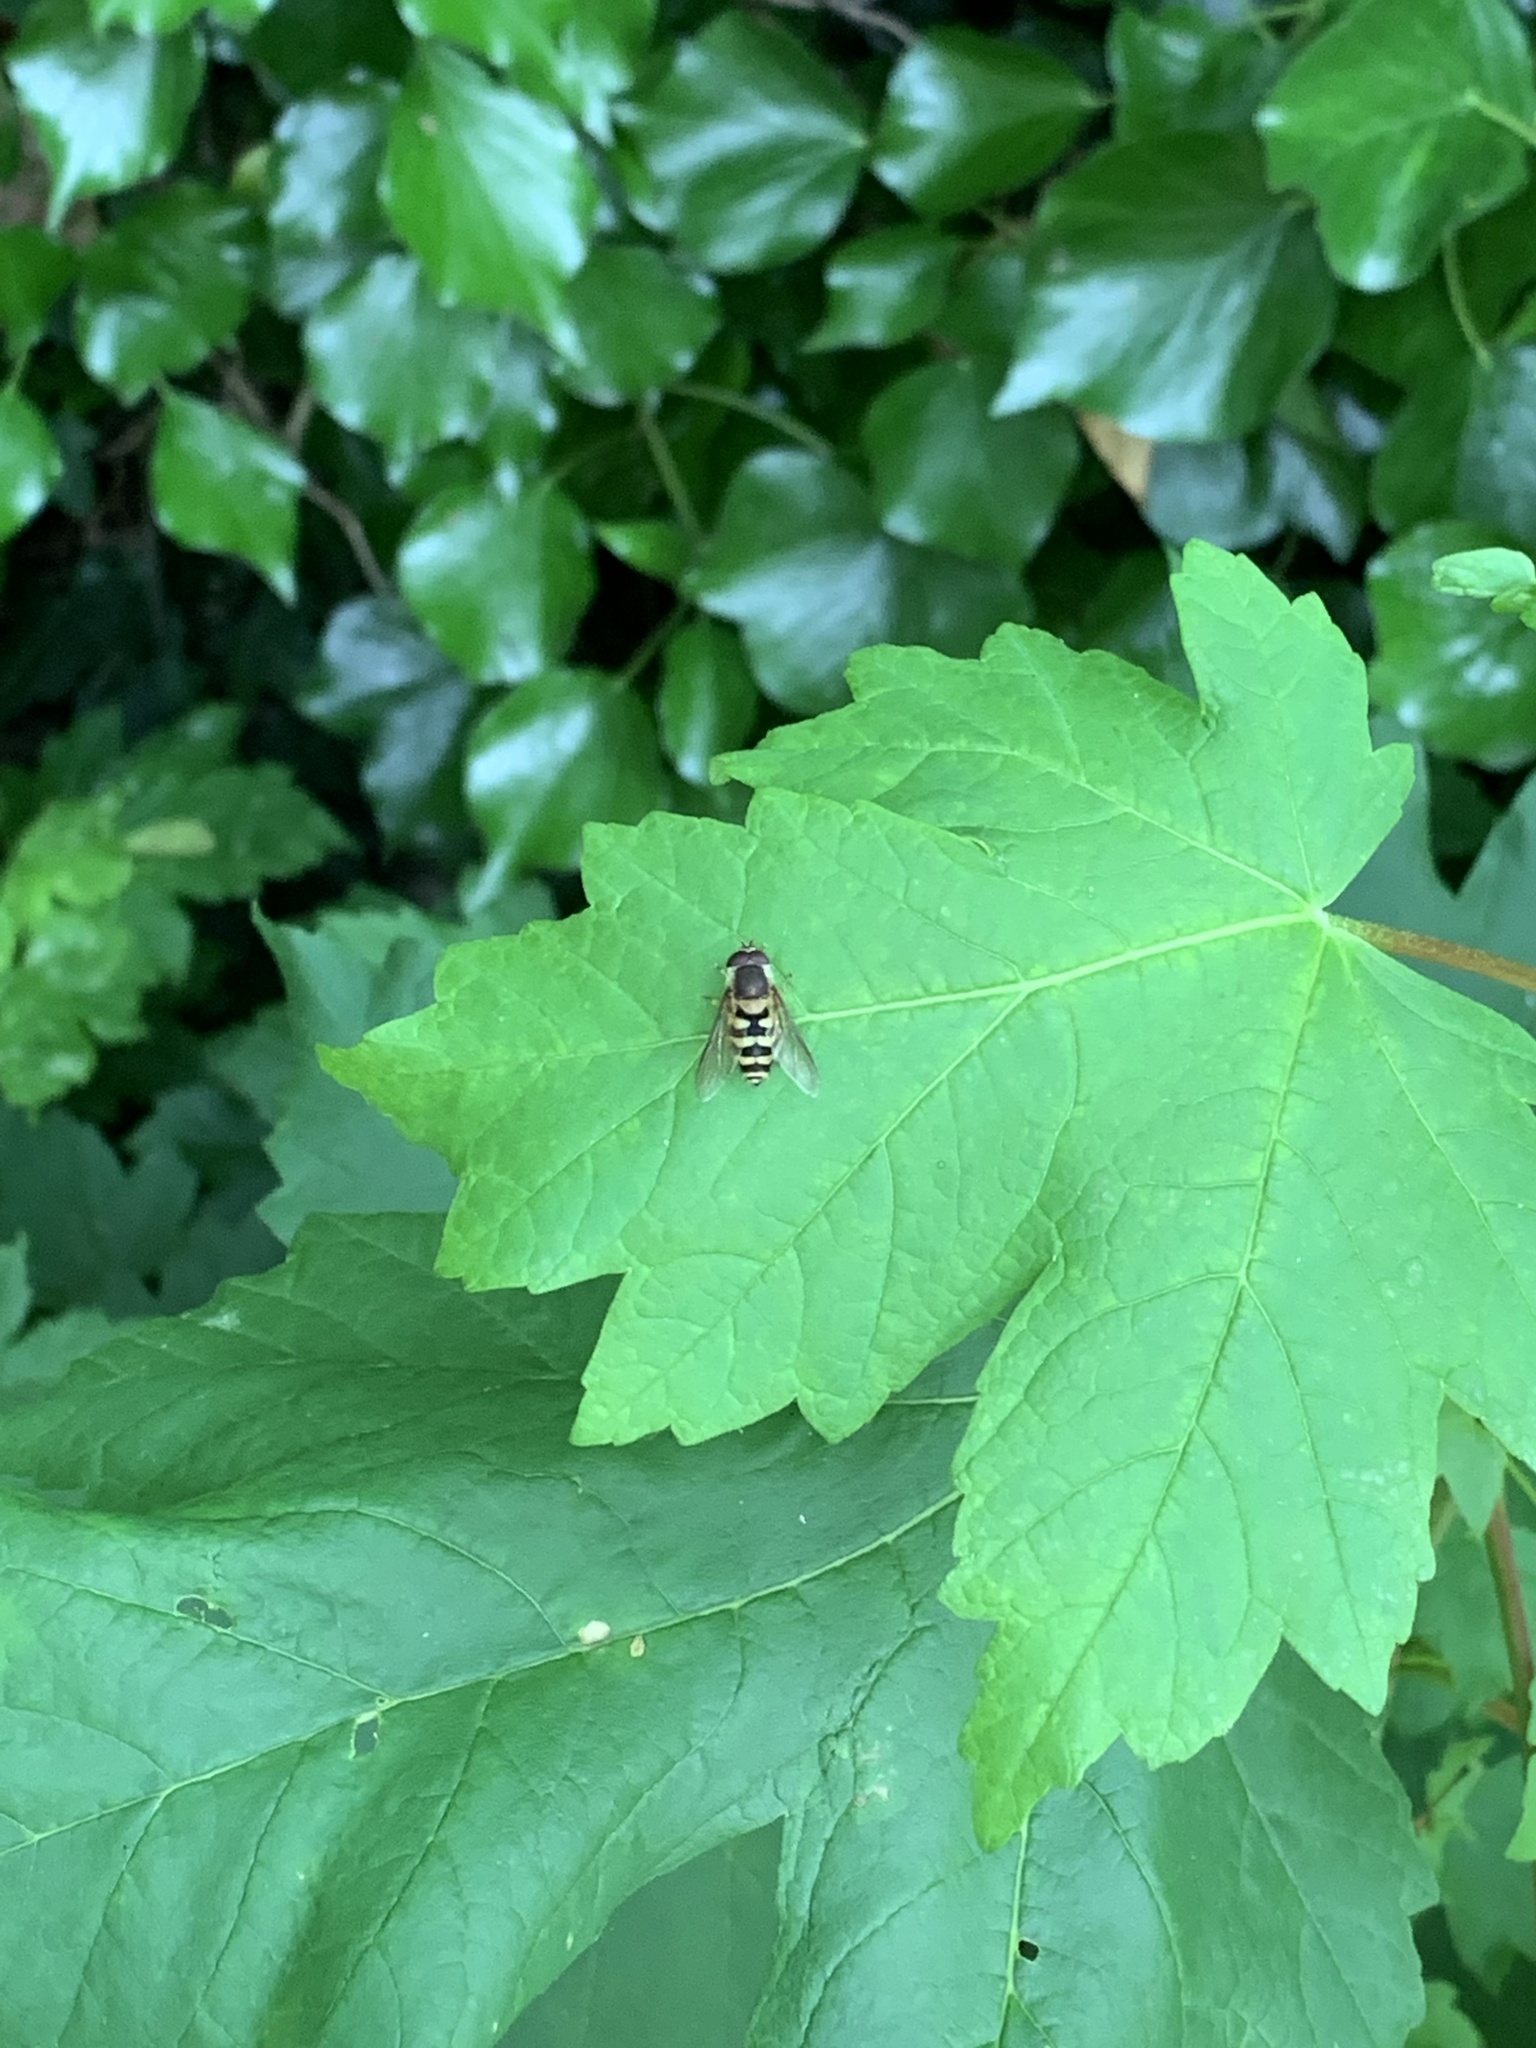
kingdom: Animalia
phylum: Arthropoda
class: Insecta
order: Diptera
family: Syrphidae
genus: Syrphus
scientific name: Syrphus
